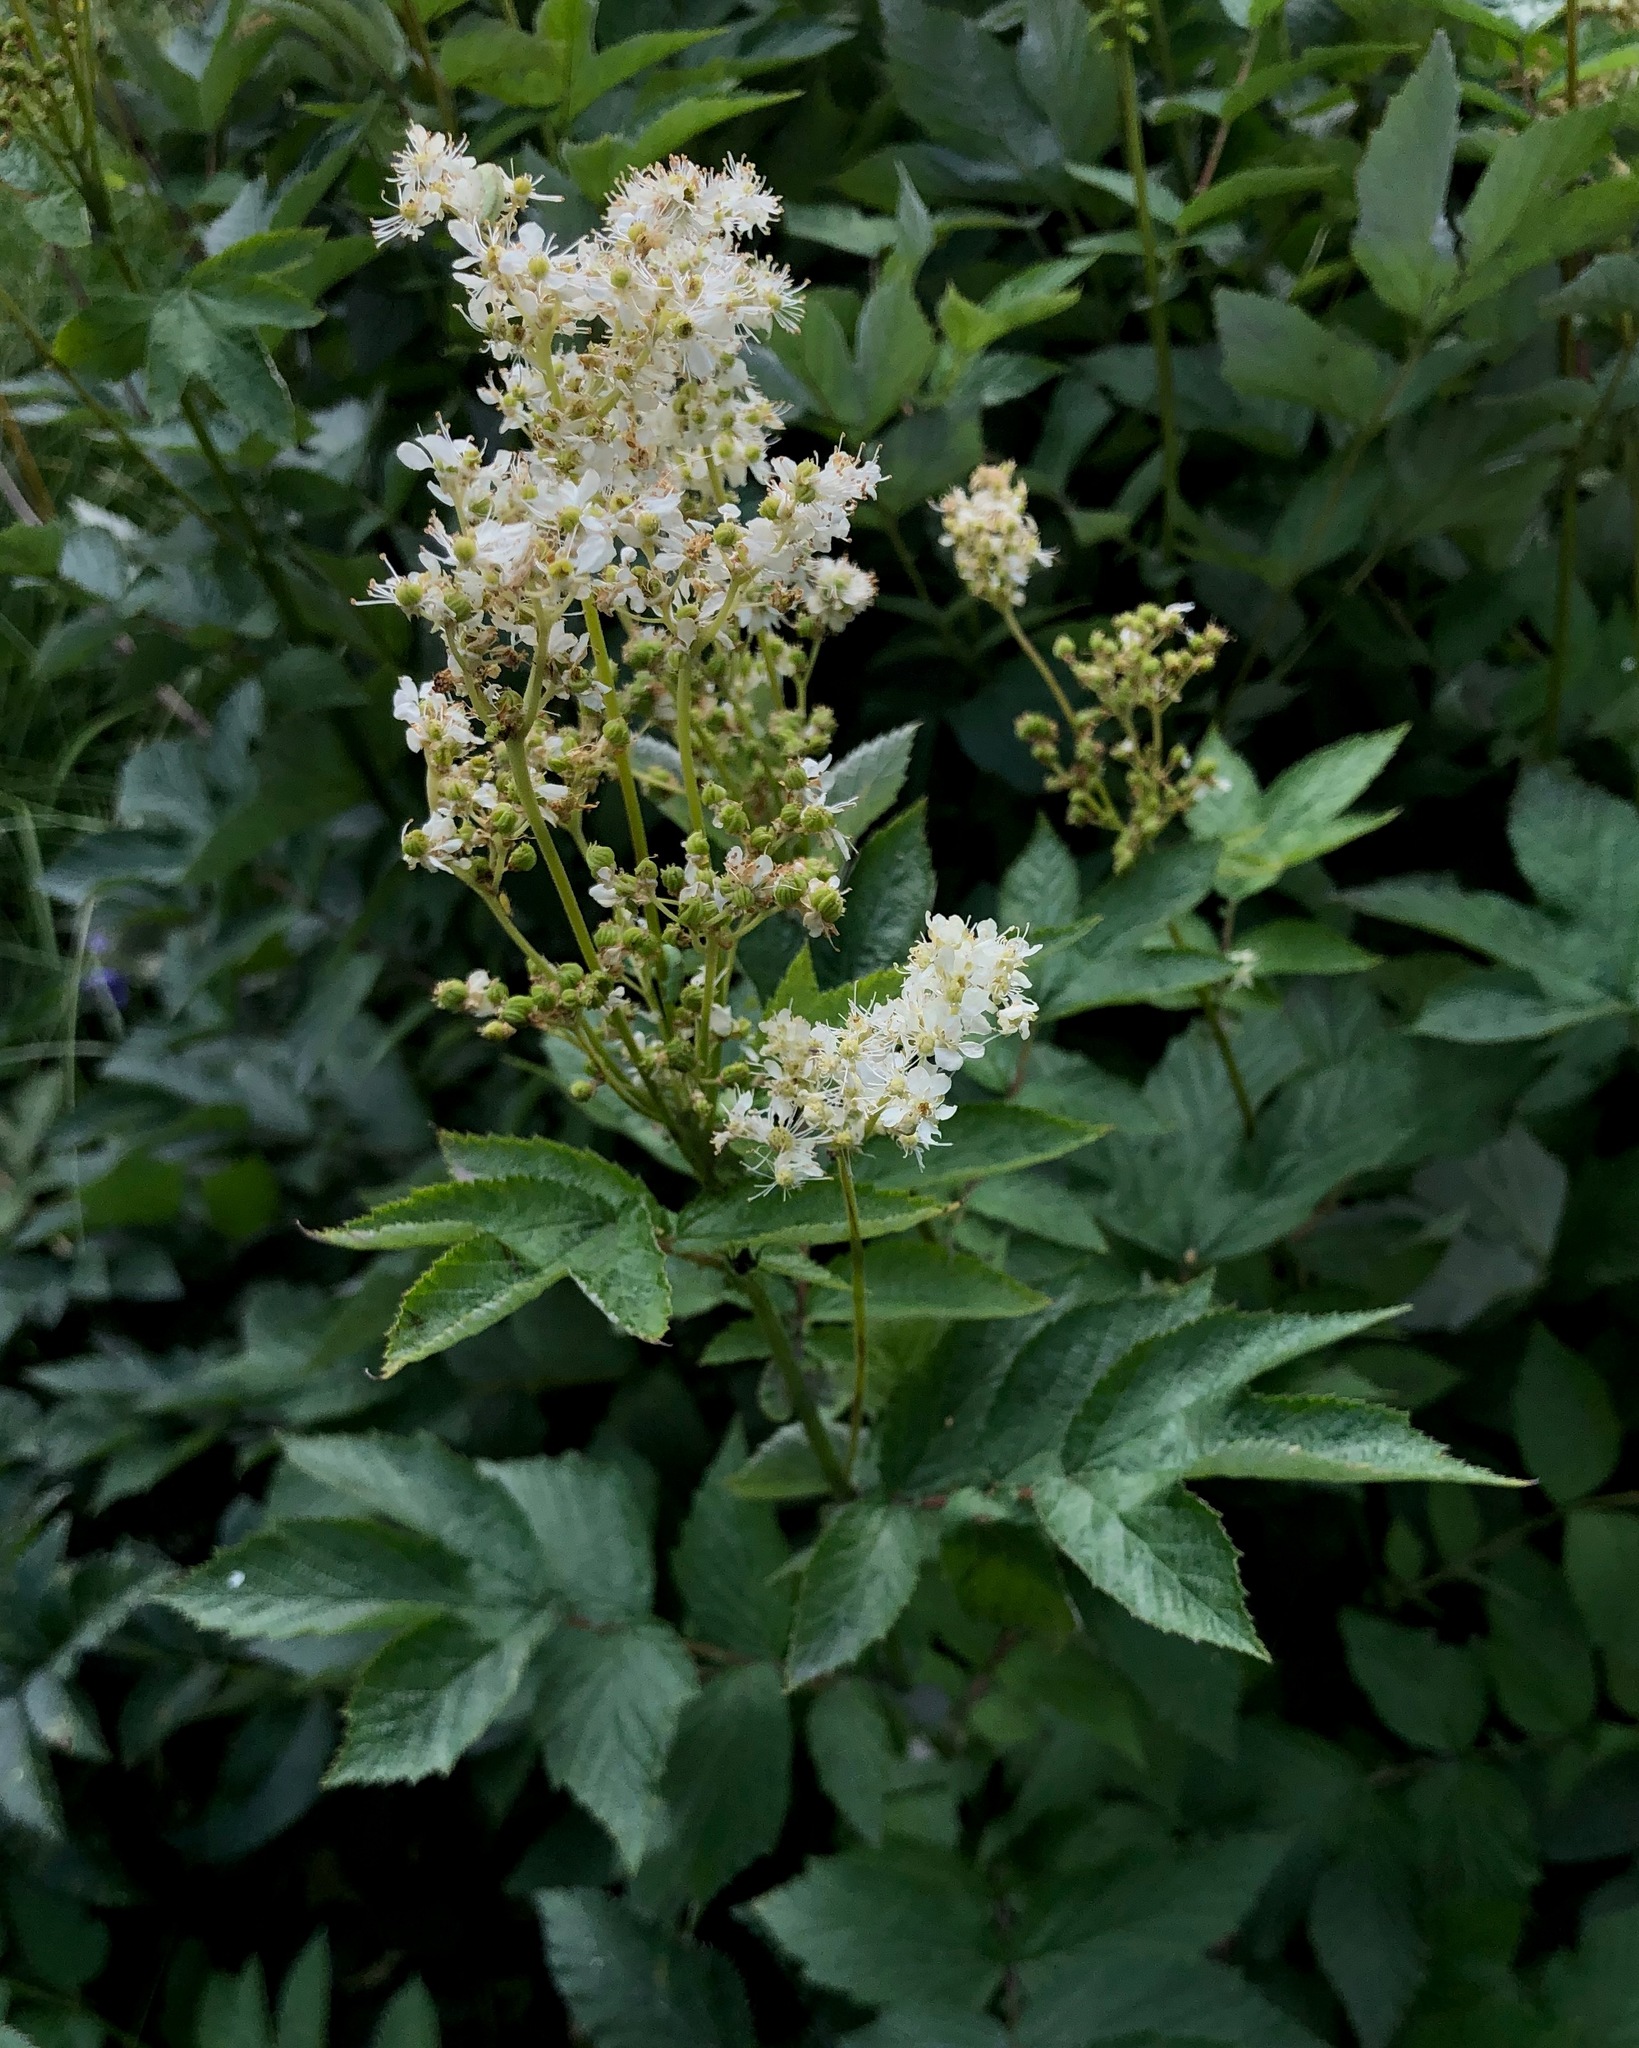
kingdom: Plantae
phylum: Tracheophyta
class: Magnoliopsida
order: Rosales
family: Rosaceae
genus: Filipendula
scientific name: Filipendula ulmaria
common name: Meadowsweet
